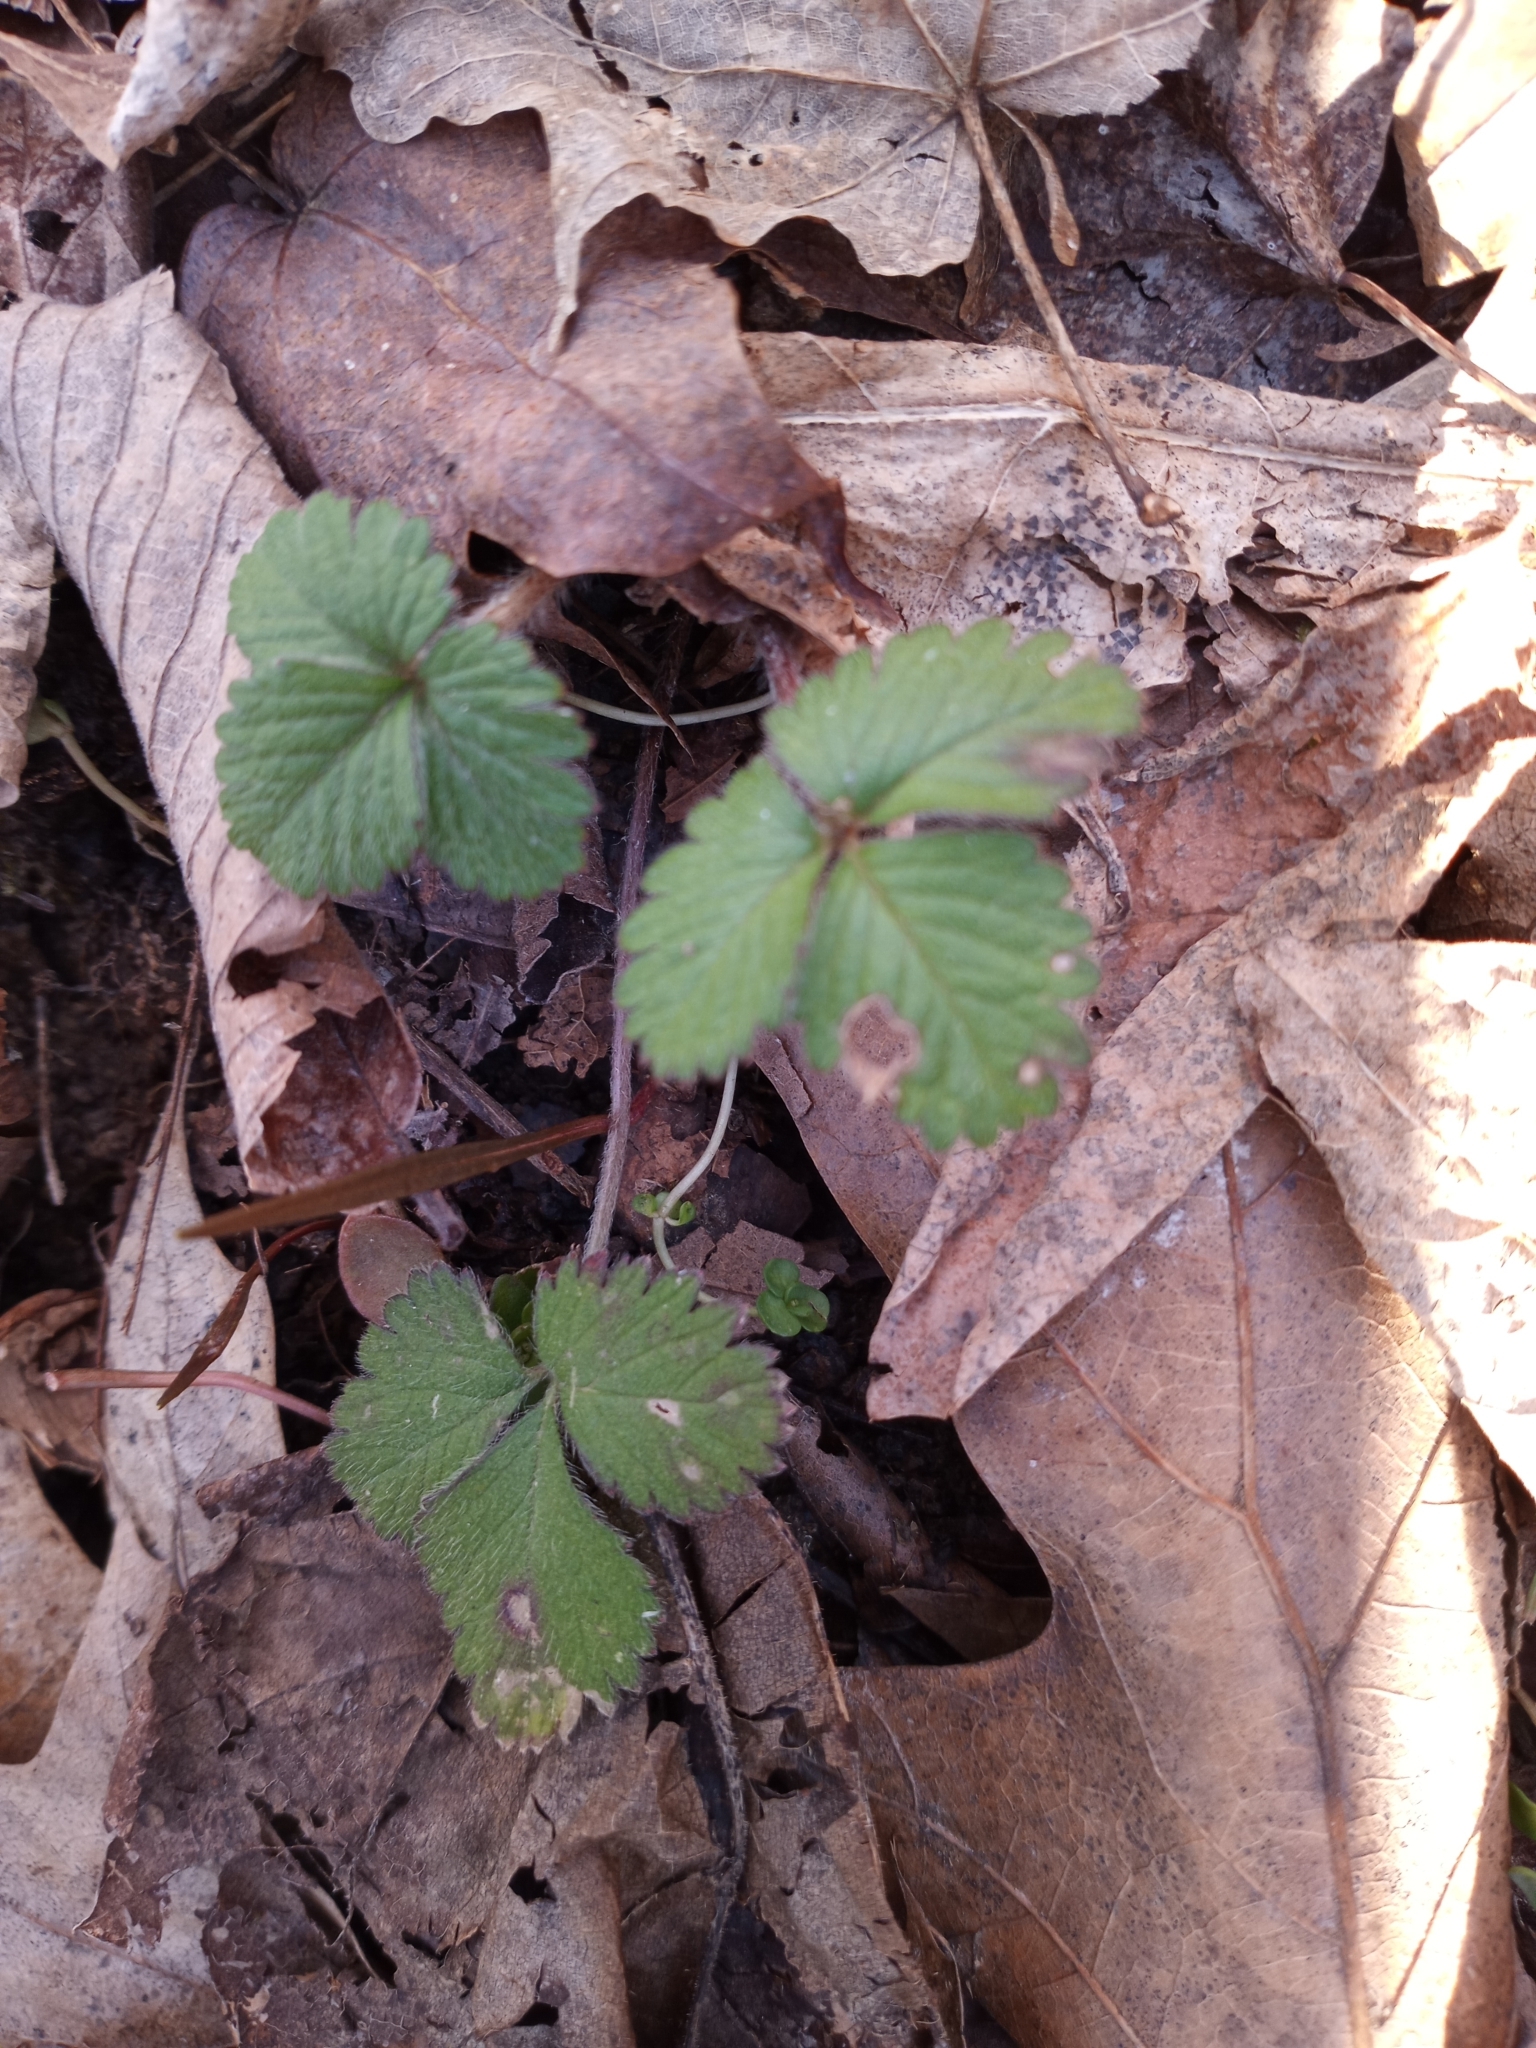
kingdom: Plantae
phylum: Tracheophyta
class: Magnoliopsida
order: Rosales
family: Rosaceae
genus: Potentilla
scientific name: Potentilla indica
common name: Yellow-flowered strawberry
